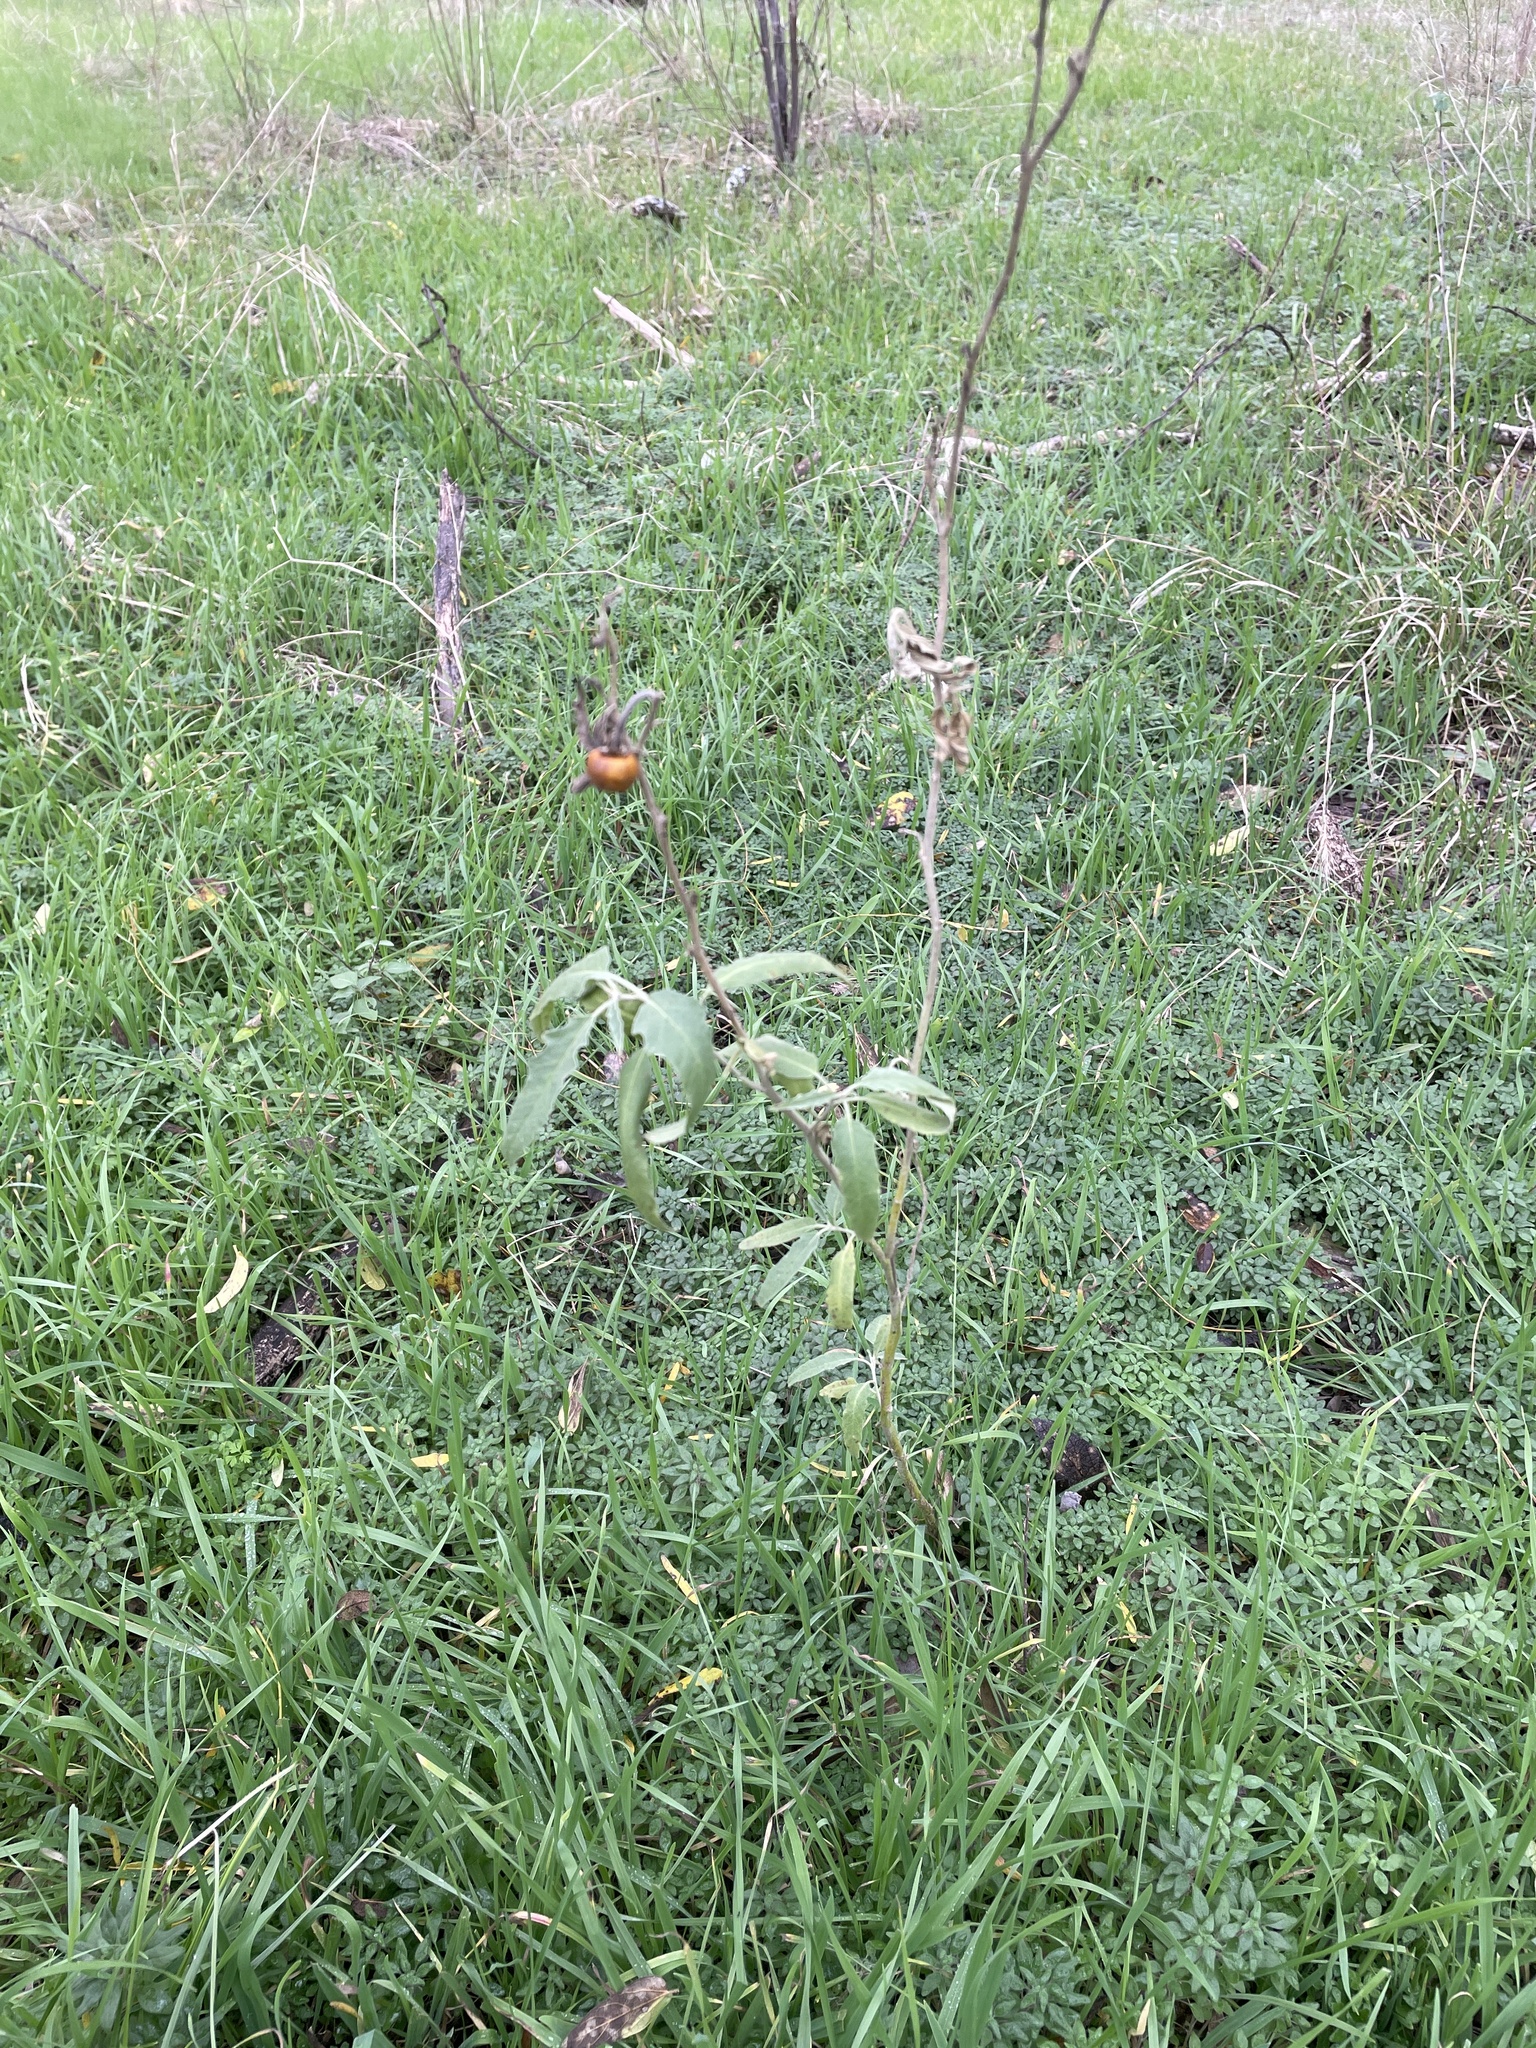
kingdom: Plantae
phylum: Tracheophyta
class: Magnoliopsida
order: Solanales
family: Solanaceae
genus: Solanum
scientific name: Solanum elaeagnifolium
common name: Silverleaf nightshade
